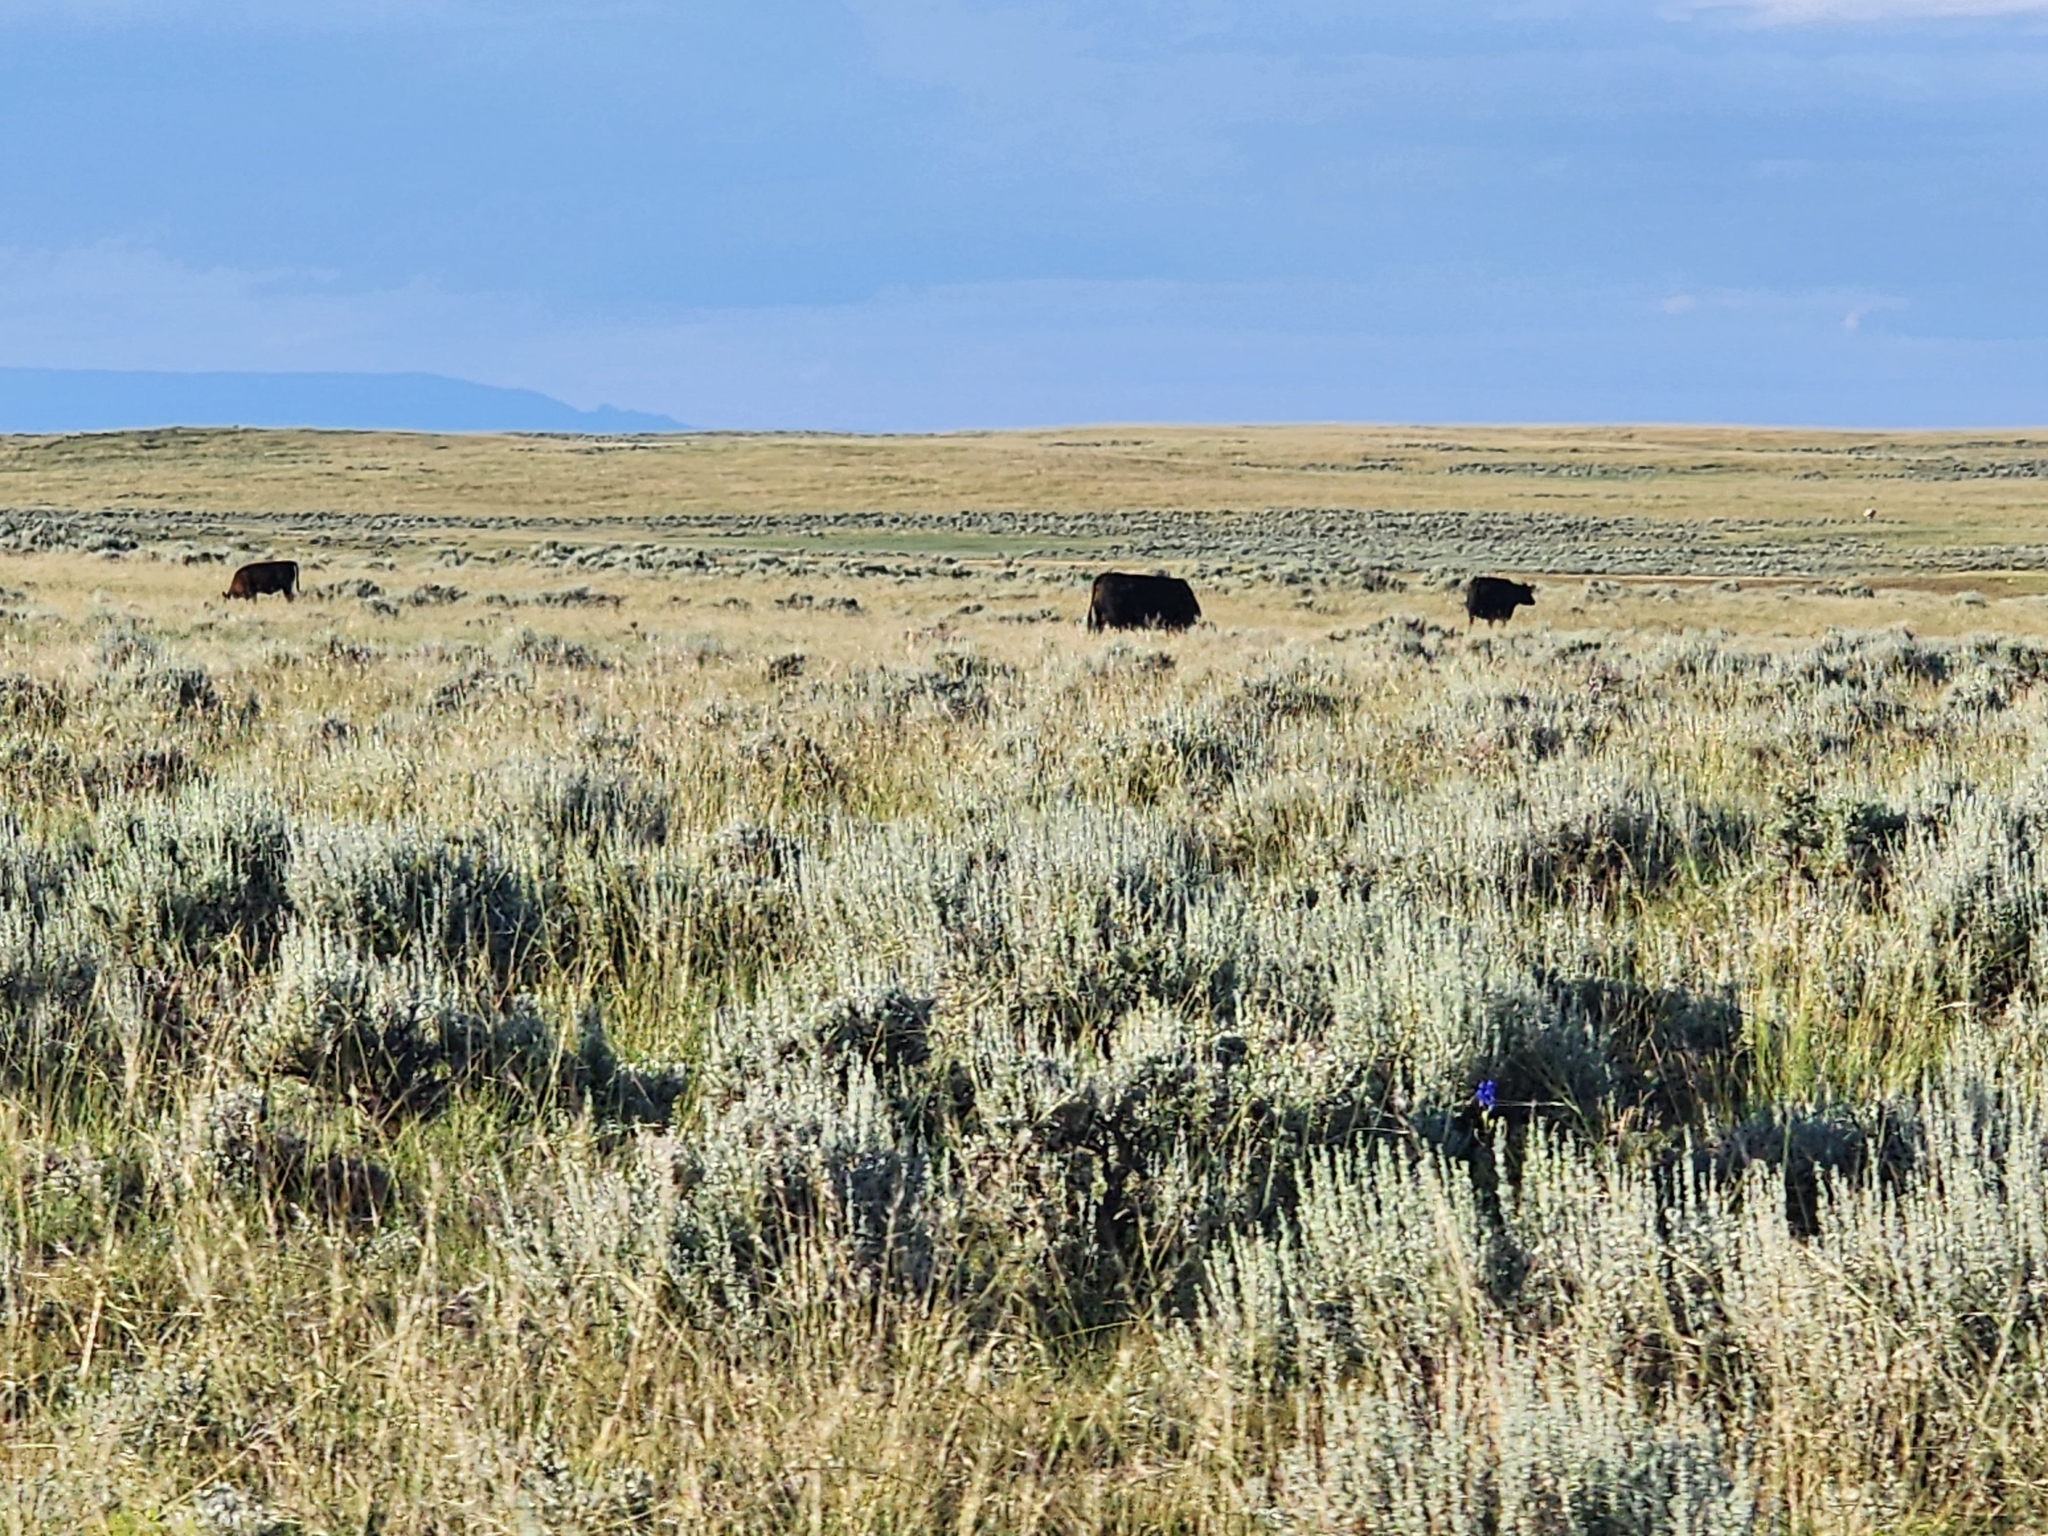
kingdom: Animalia
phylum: Chordata
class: Mammalia
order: Artiodactyla
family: Bovidae
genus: Bos
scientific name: Bos taurus
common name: Domesticated cattle
